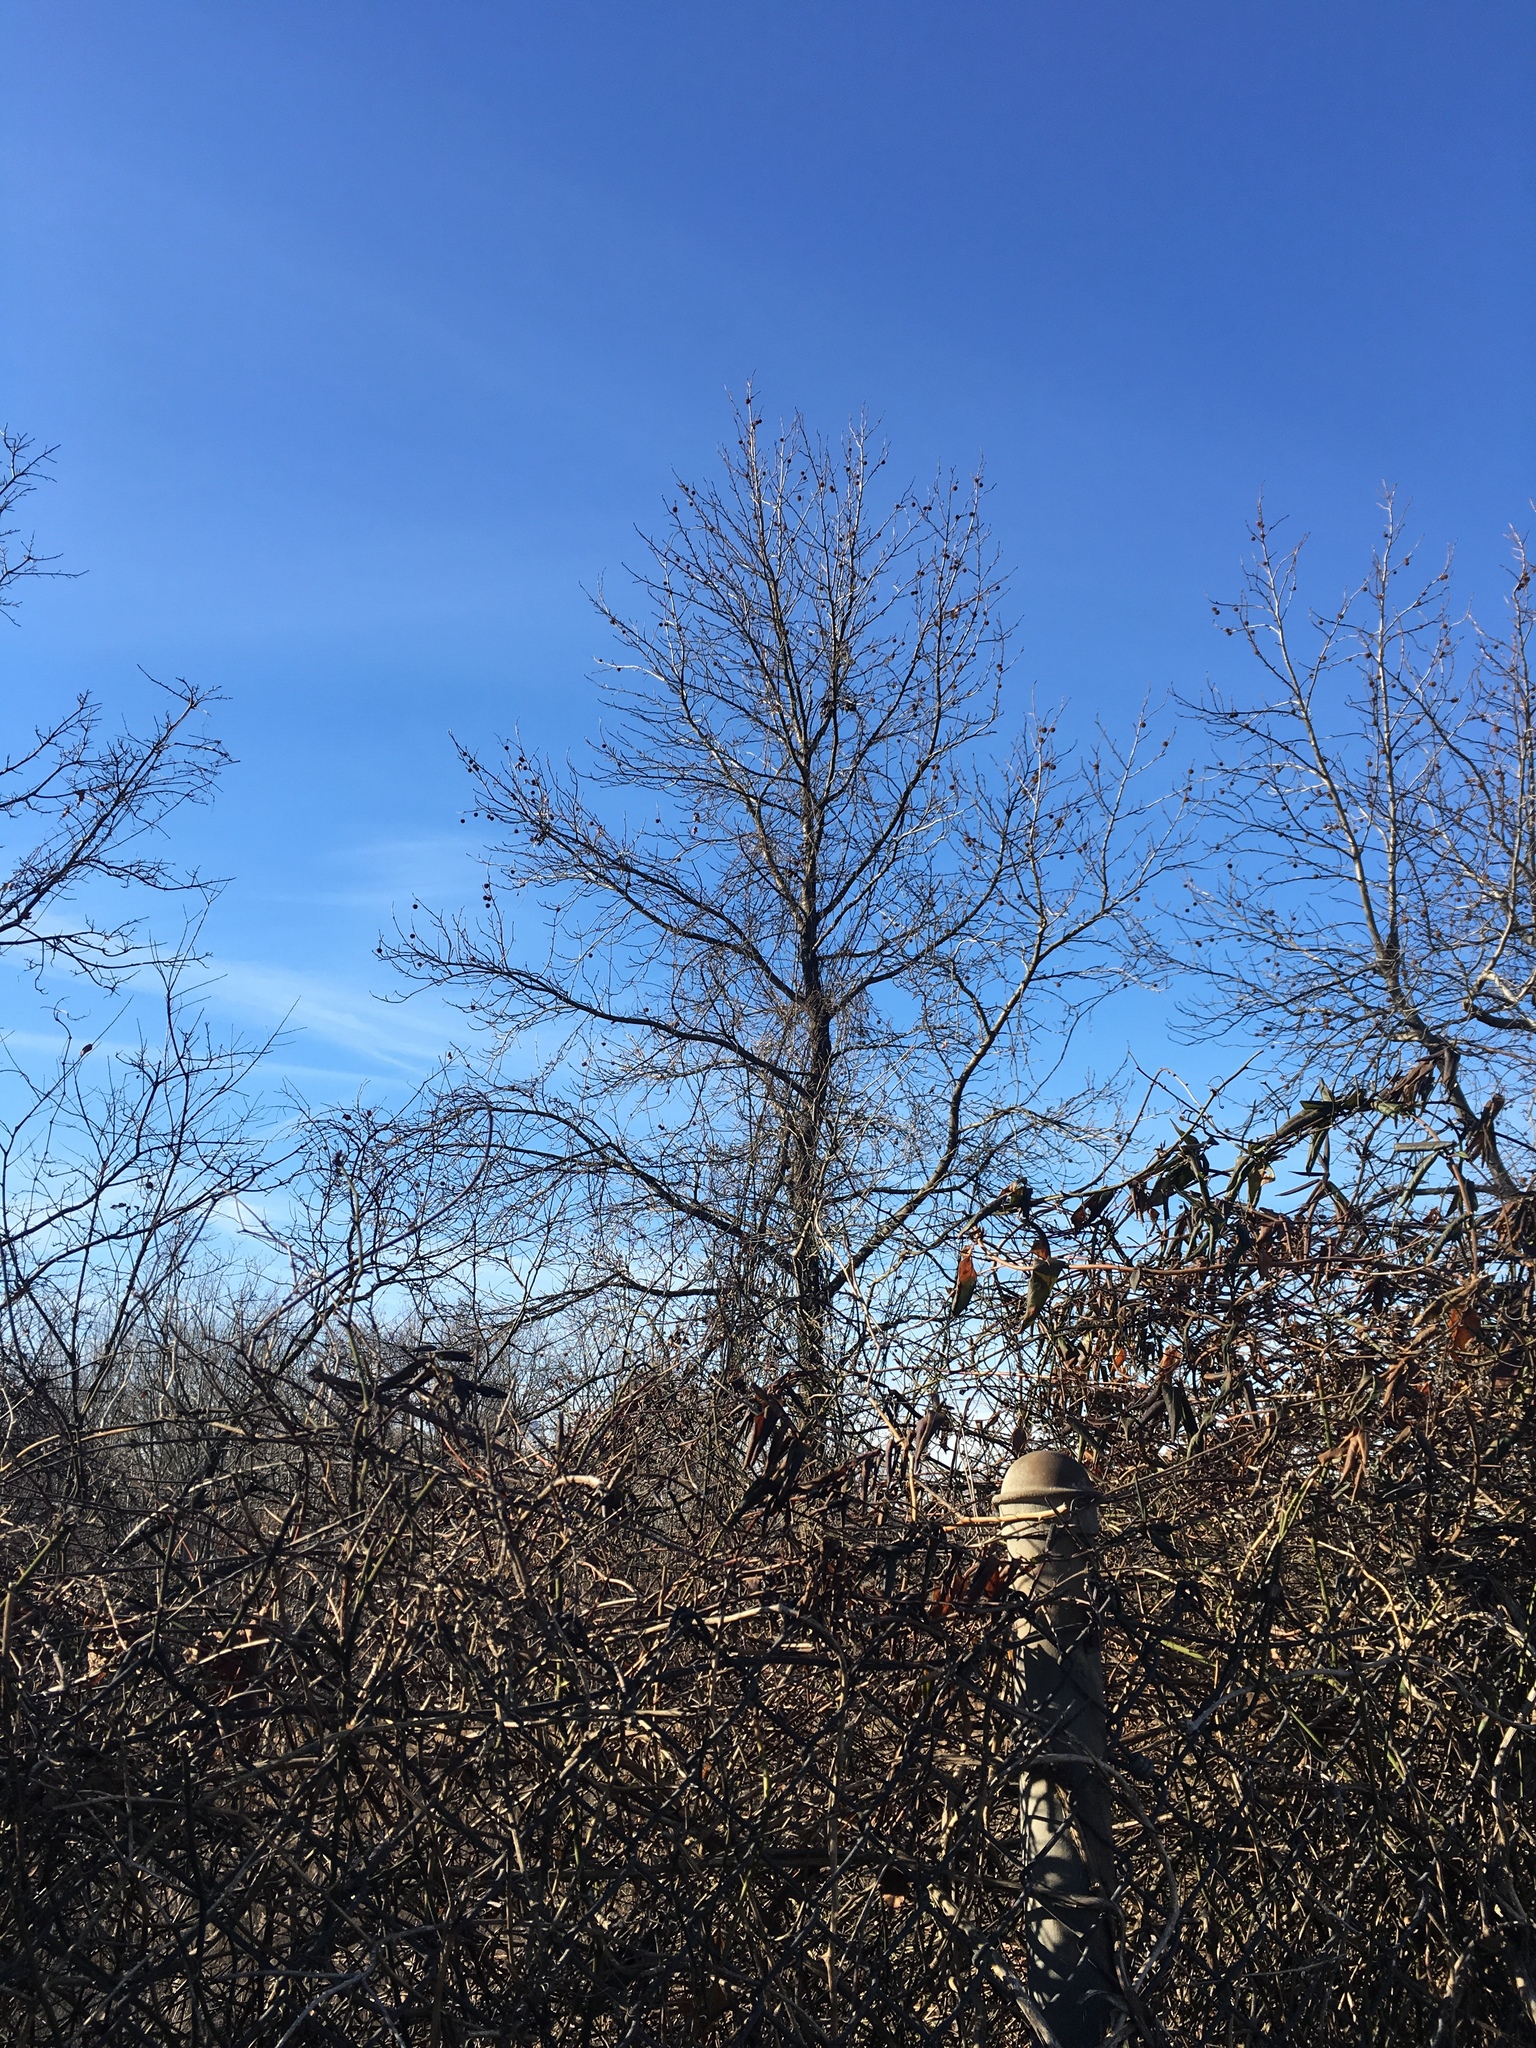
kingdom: Plantae
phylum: Tracheophyta
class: Magnoliopsida
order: Saxifragales
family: Altingiaceae
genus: Liquidambar
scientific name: Liquidambar styraciflua
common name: Sweet gum
